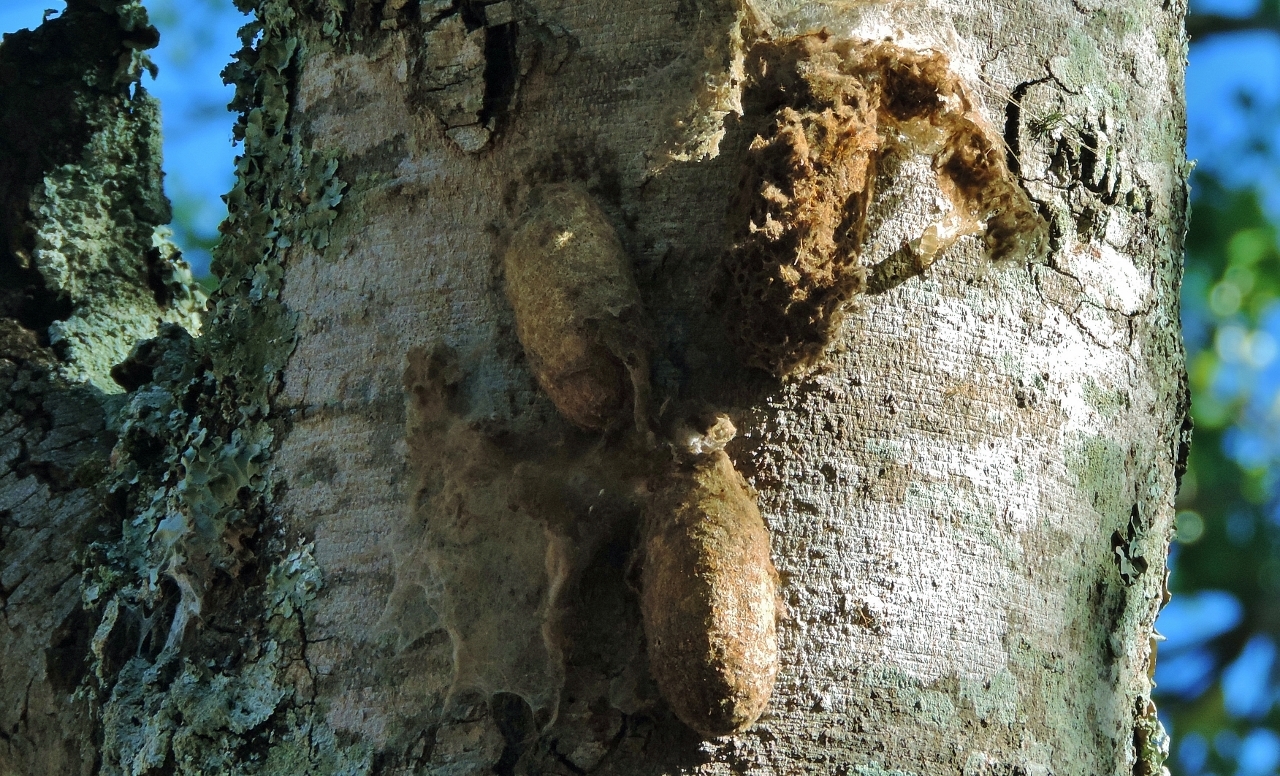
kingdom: Animalia
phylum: Arthropoda
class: Insecta
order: Lepidoptera
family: Lasiocampidae
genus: Gonometa
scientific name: Gonometa robusta
